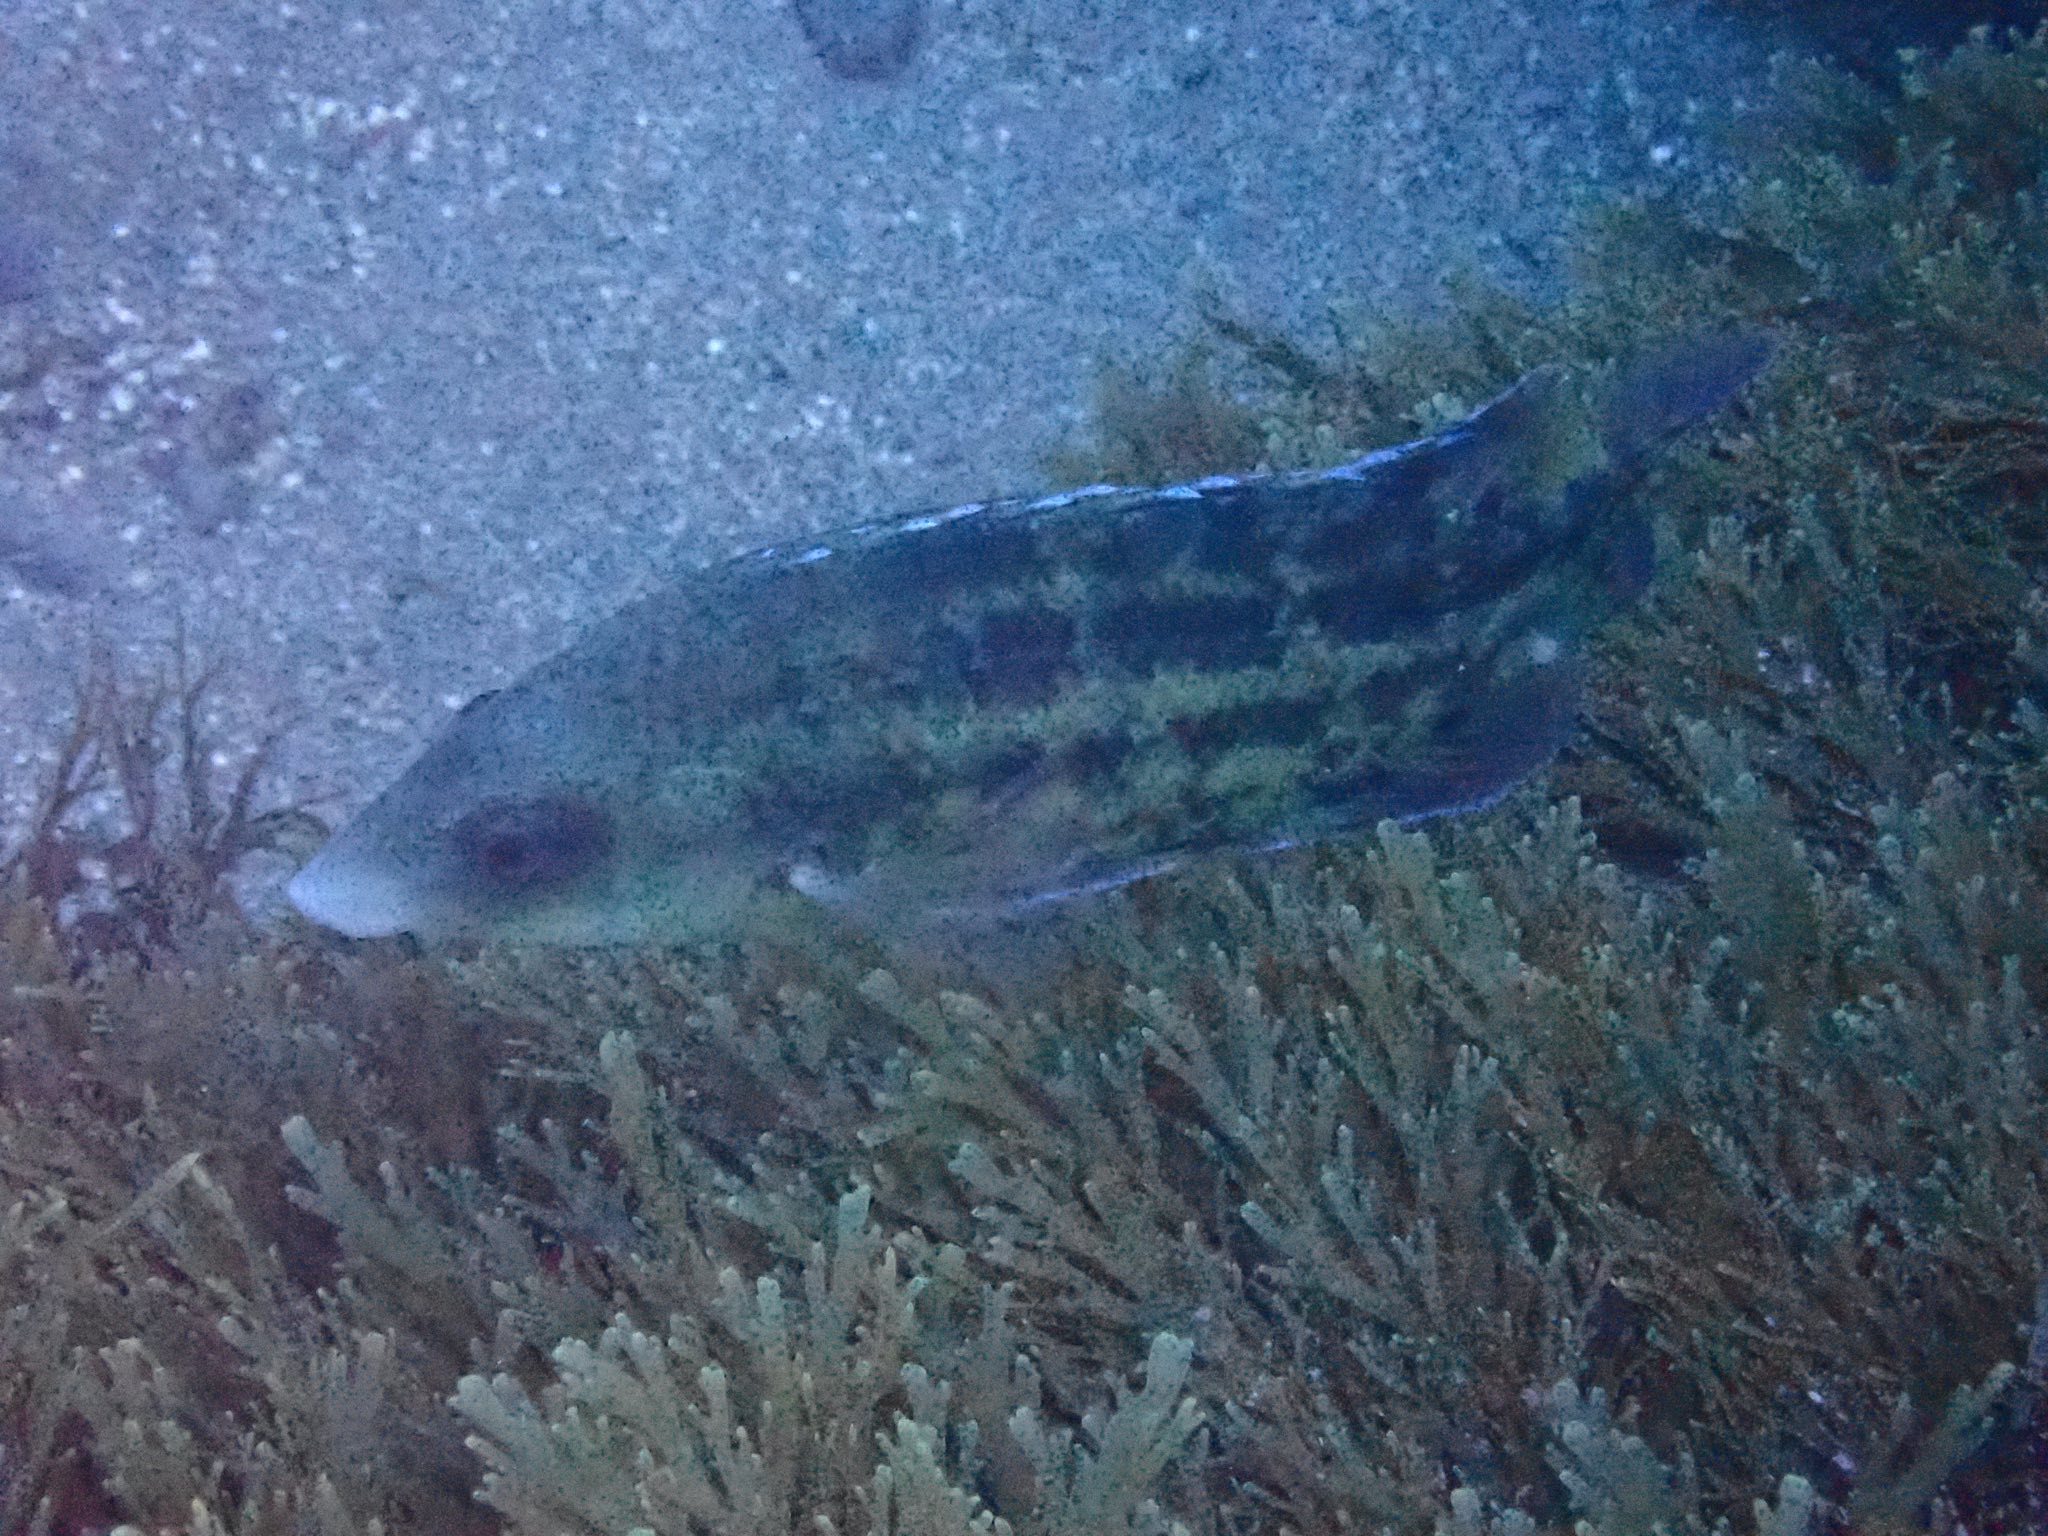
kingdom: Animalia
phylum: Chordata
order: Perciformes
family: Labridae
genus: Symphodus
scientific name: Symphodus caeruleus
